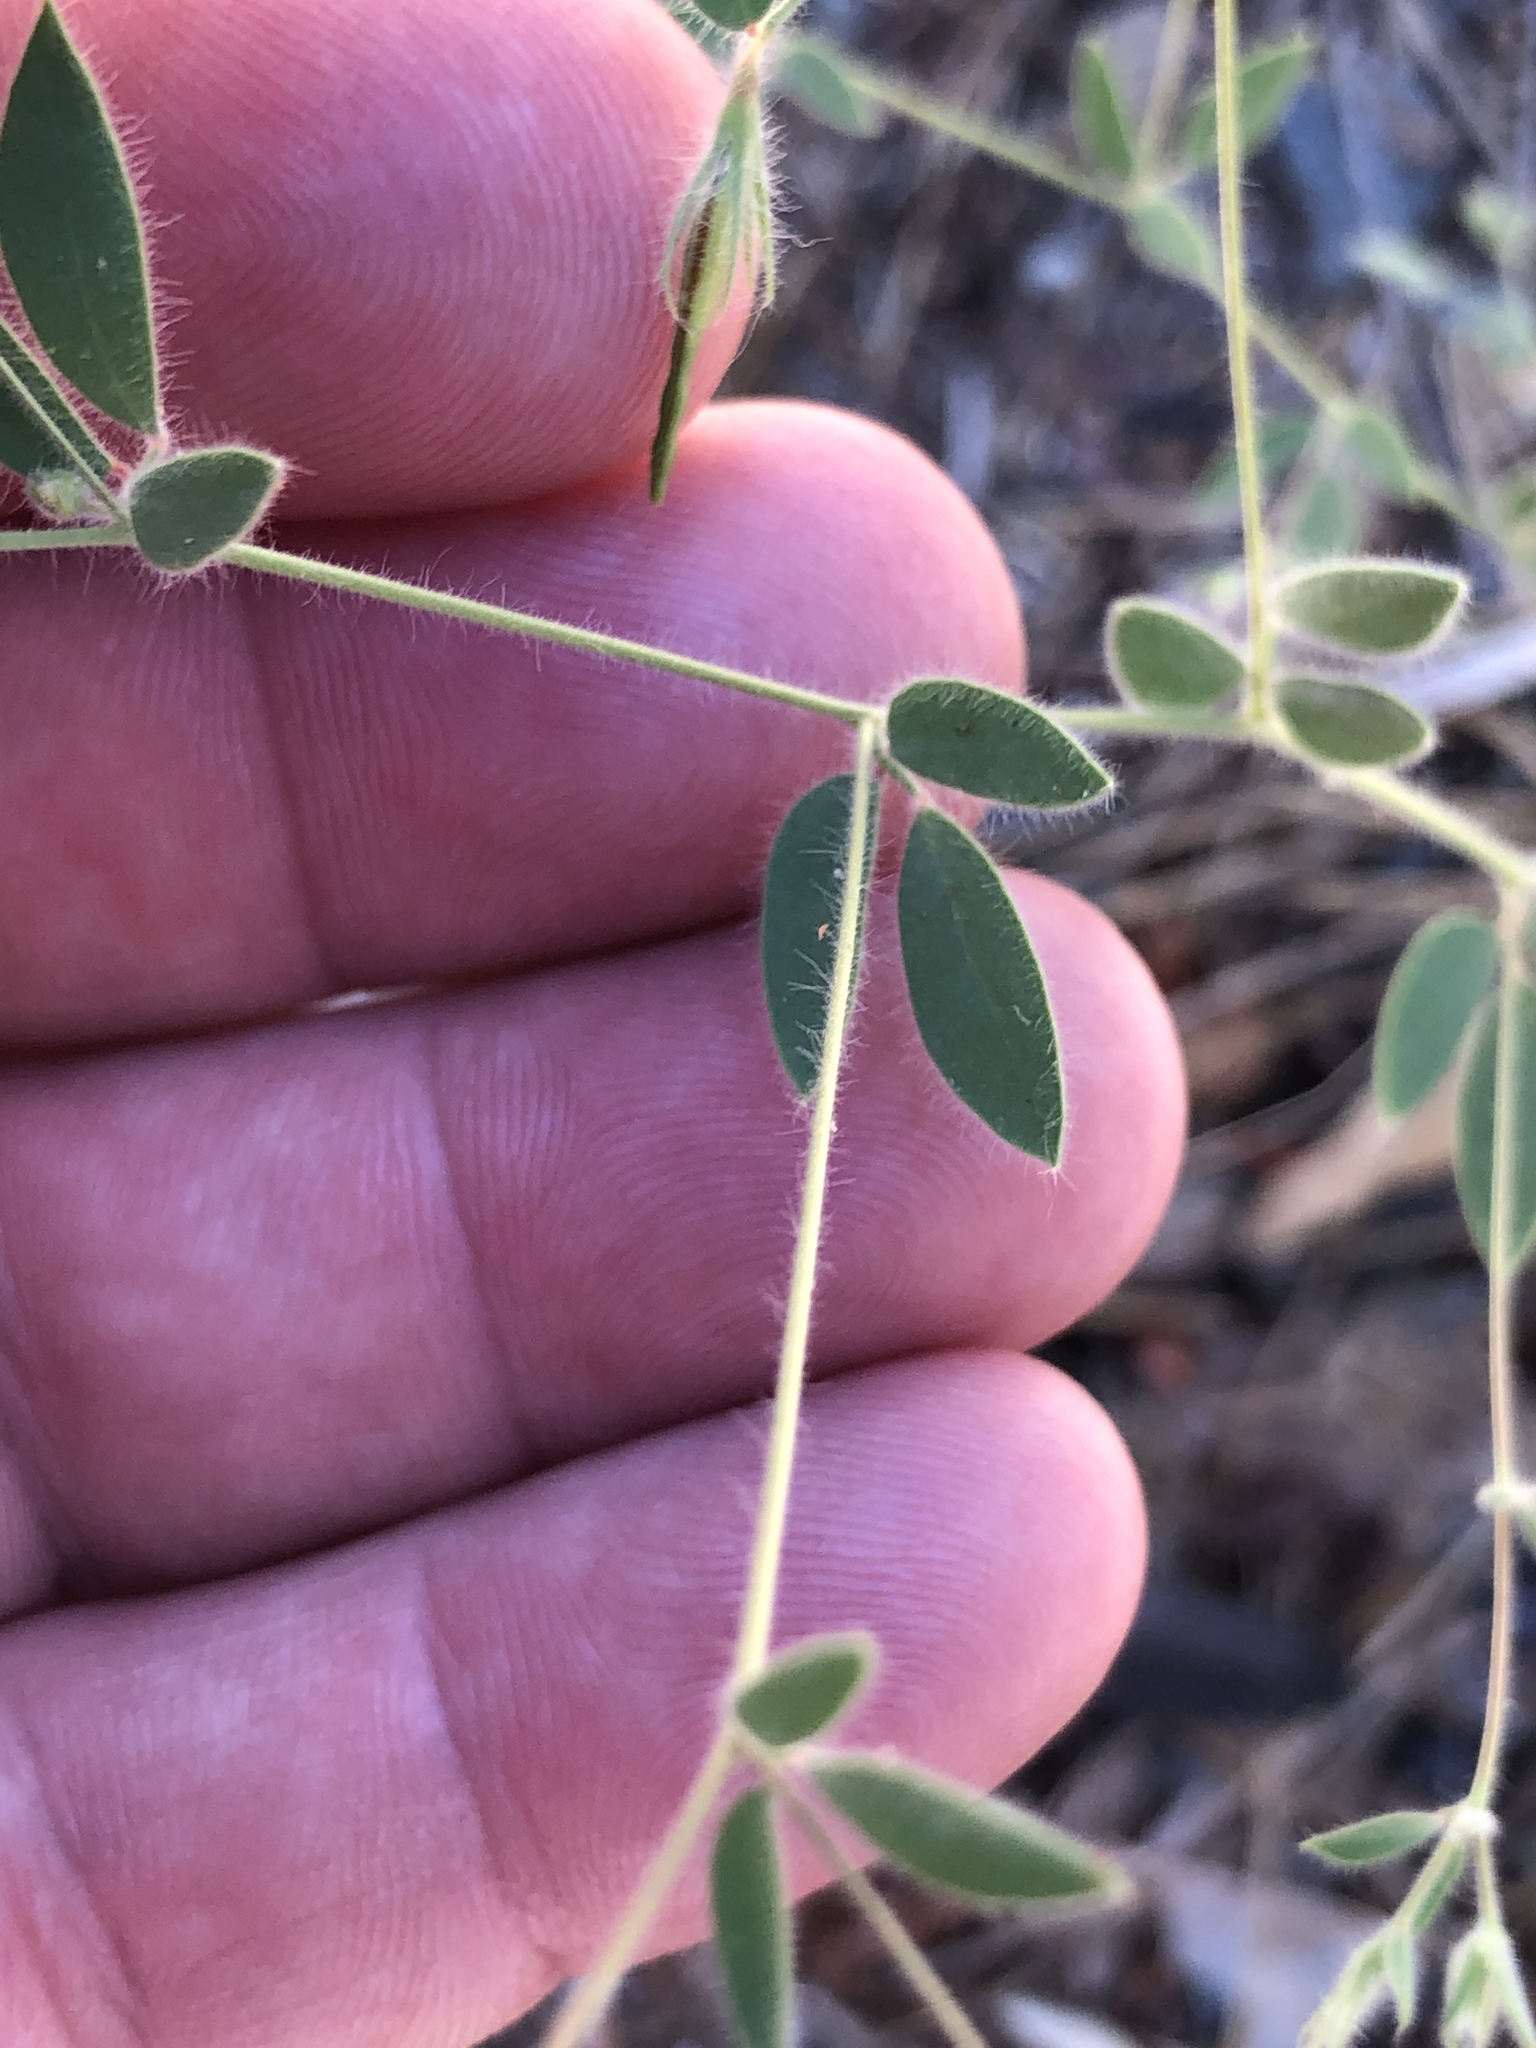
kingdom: Plantae
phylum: Tracheophyta
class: Magnoliopsida
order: Fabales
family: Fabaceae
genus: Acmispon
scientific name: Acmispon americanus
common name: American bird's-foot trefoil
